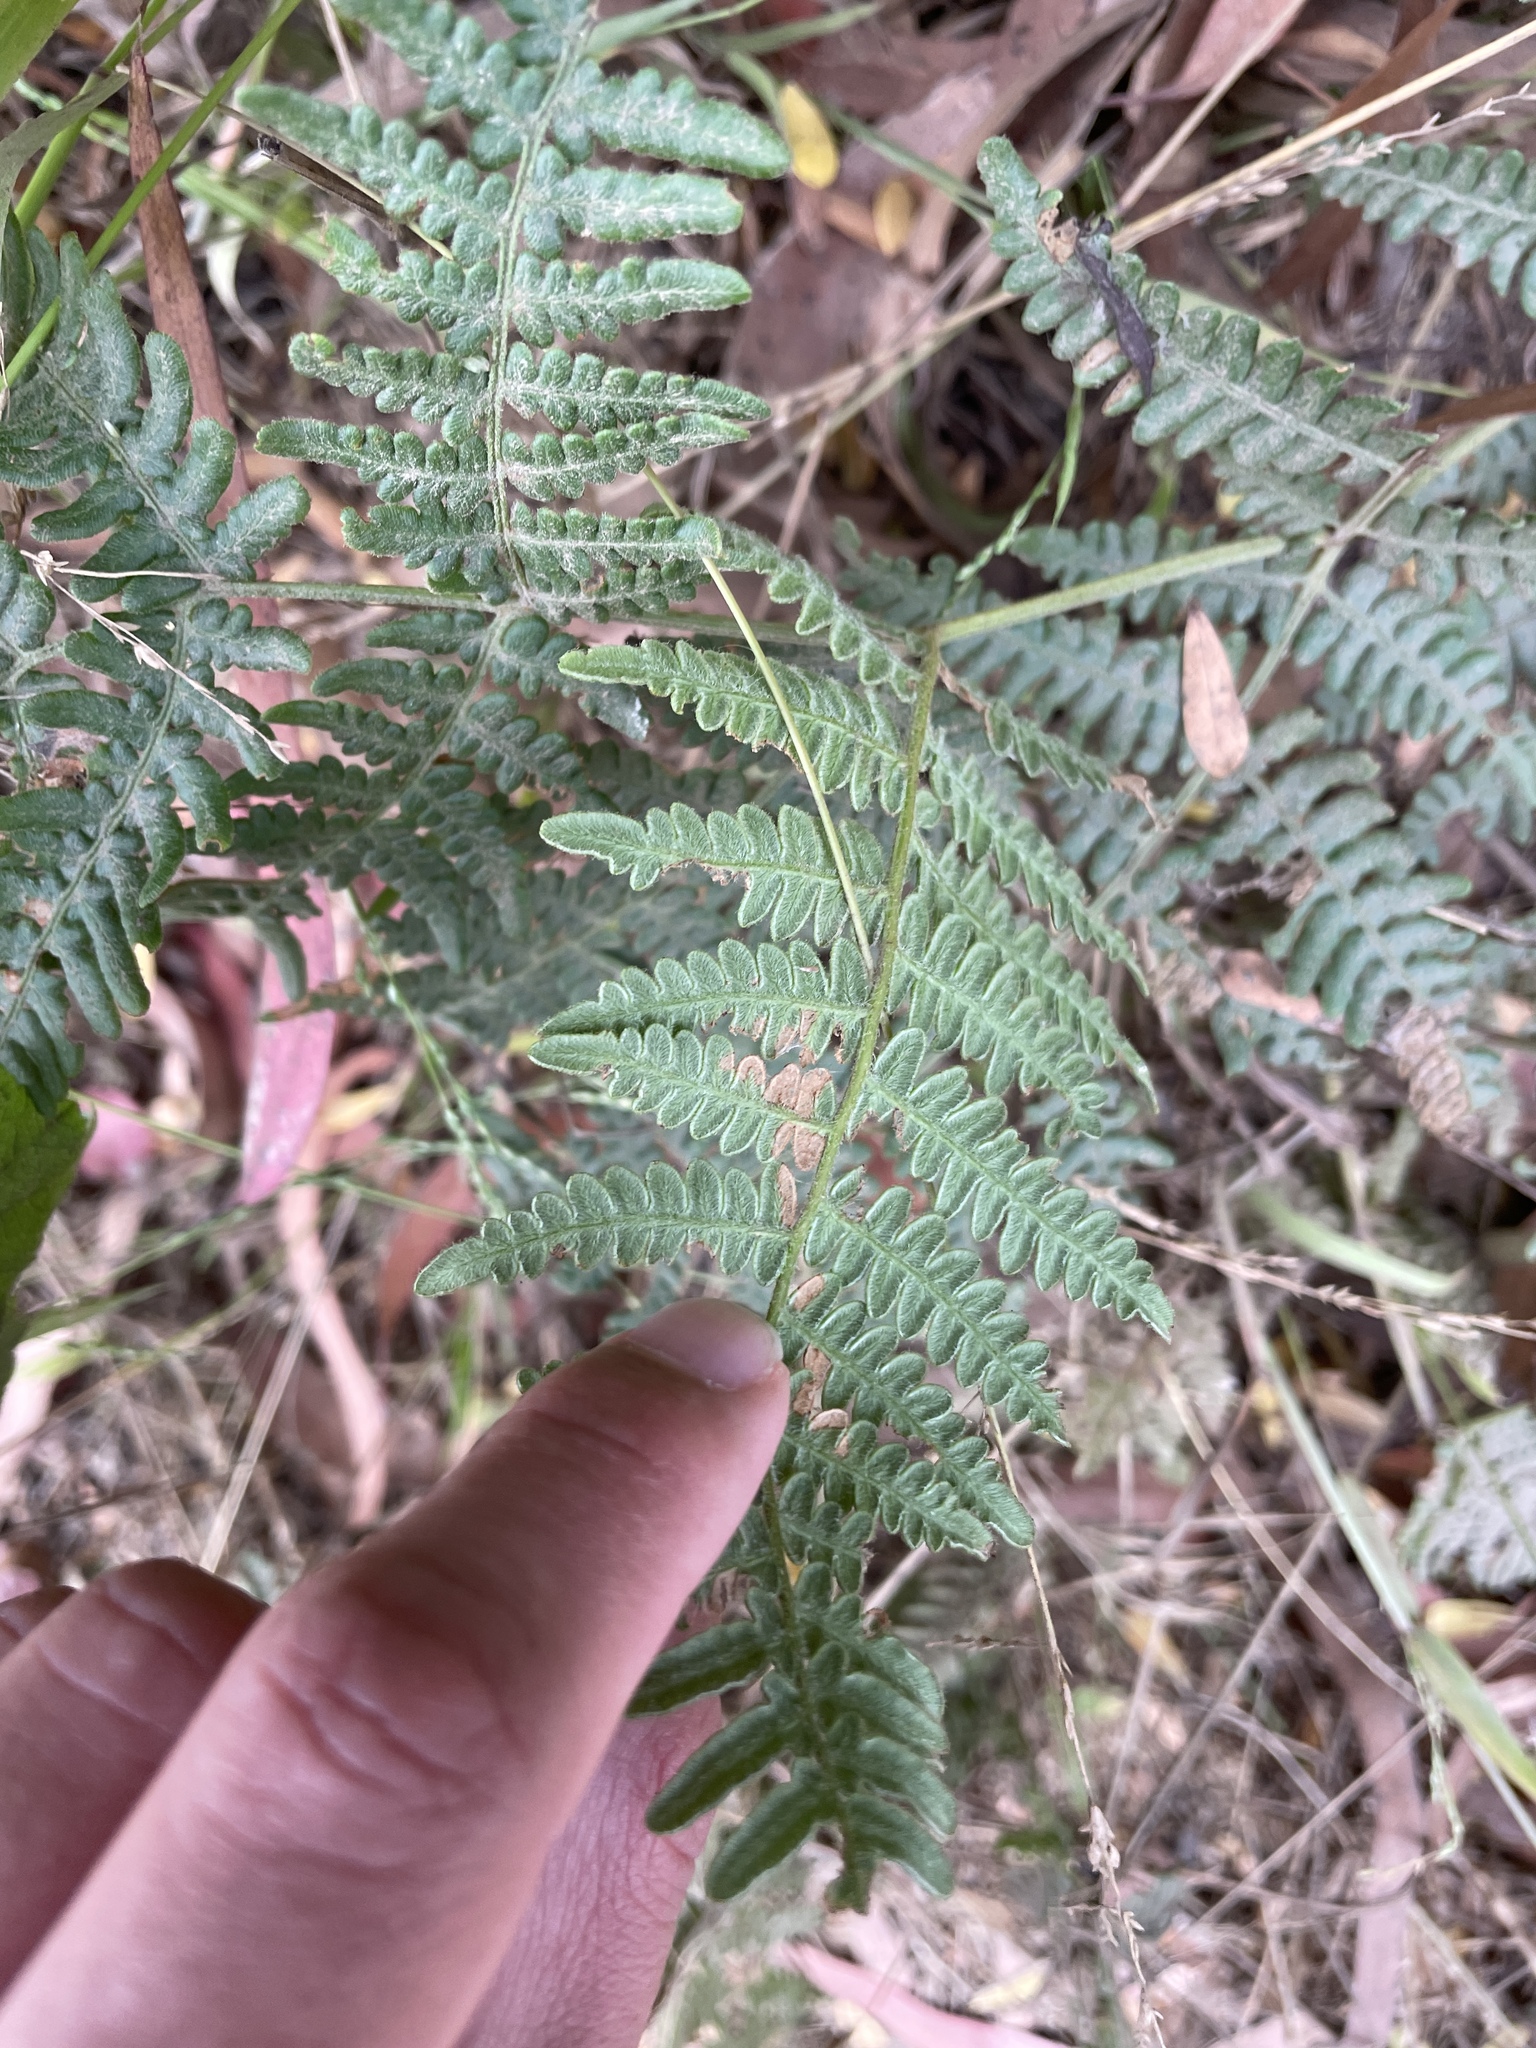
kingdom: Plantae
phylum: Tracheophyta
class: Polypodiopsida
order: Polypodiales
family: Dennstaedtiaceae
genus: Pteridium
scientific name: Pteridium aquilinum
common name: Bracken
